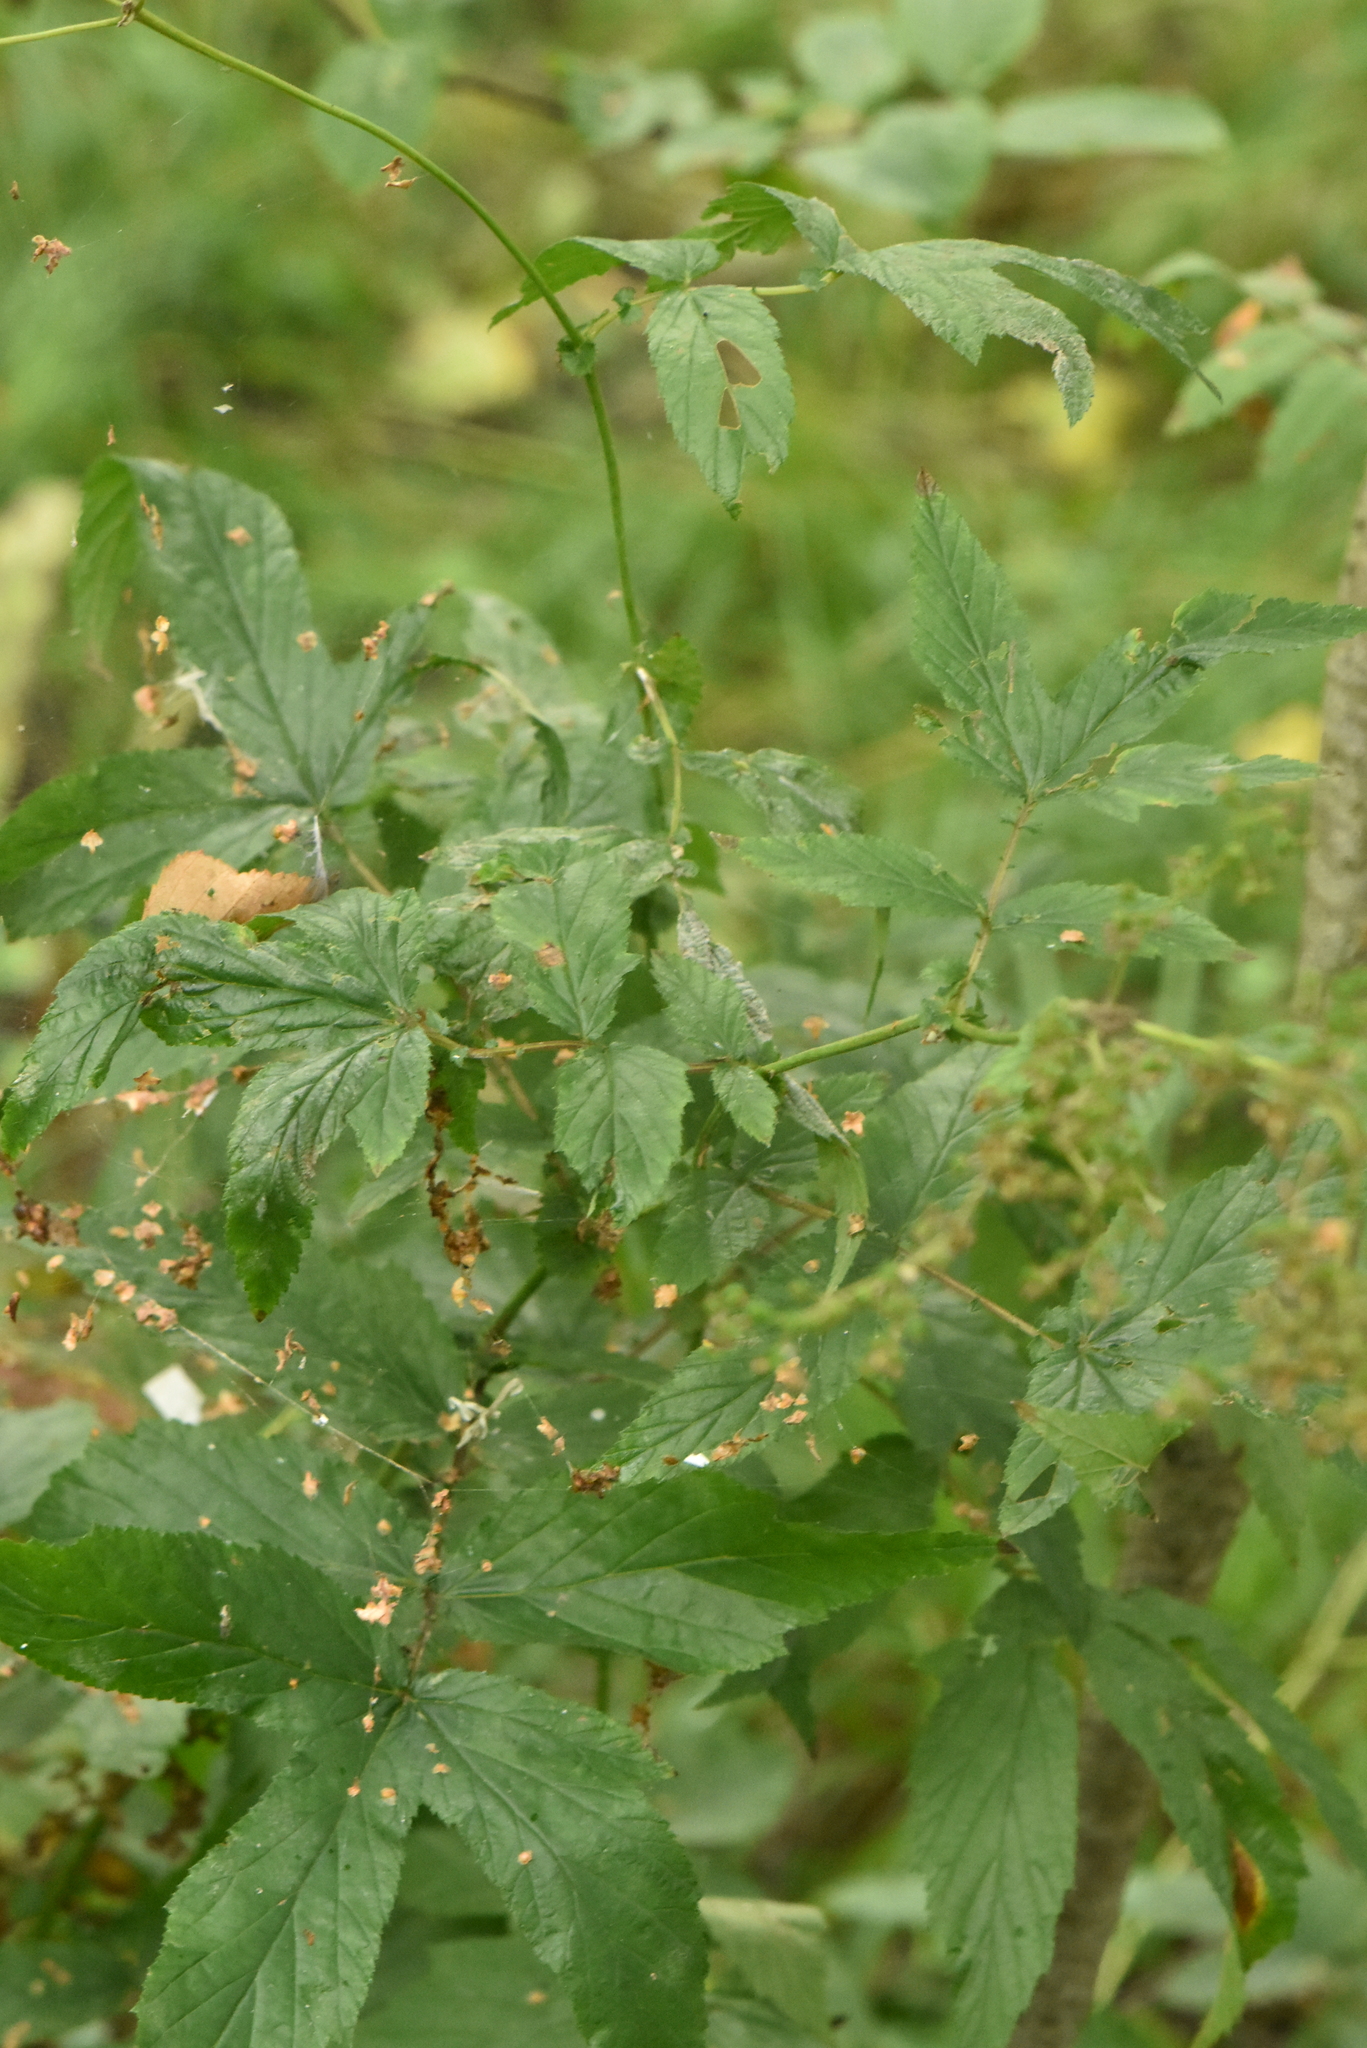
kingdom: Plantae
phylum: Tracheophyta
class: Magnoliopsida
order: Rosales
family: Rosaceae
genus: Filipendula
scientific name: Filipendula ulmaria
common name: Meadowsweet
